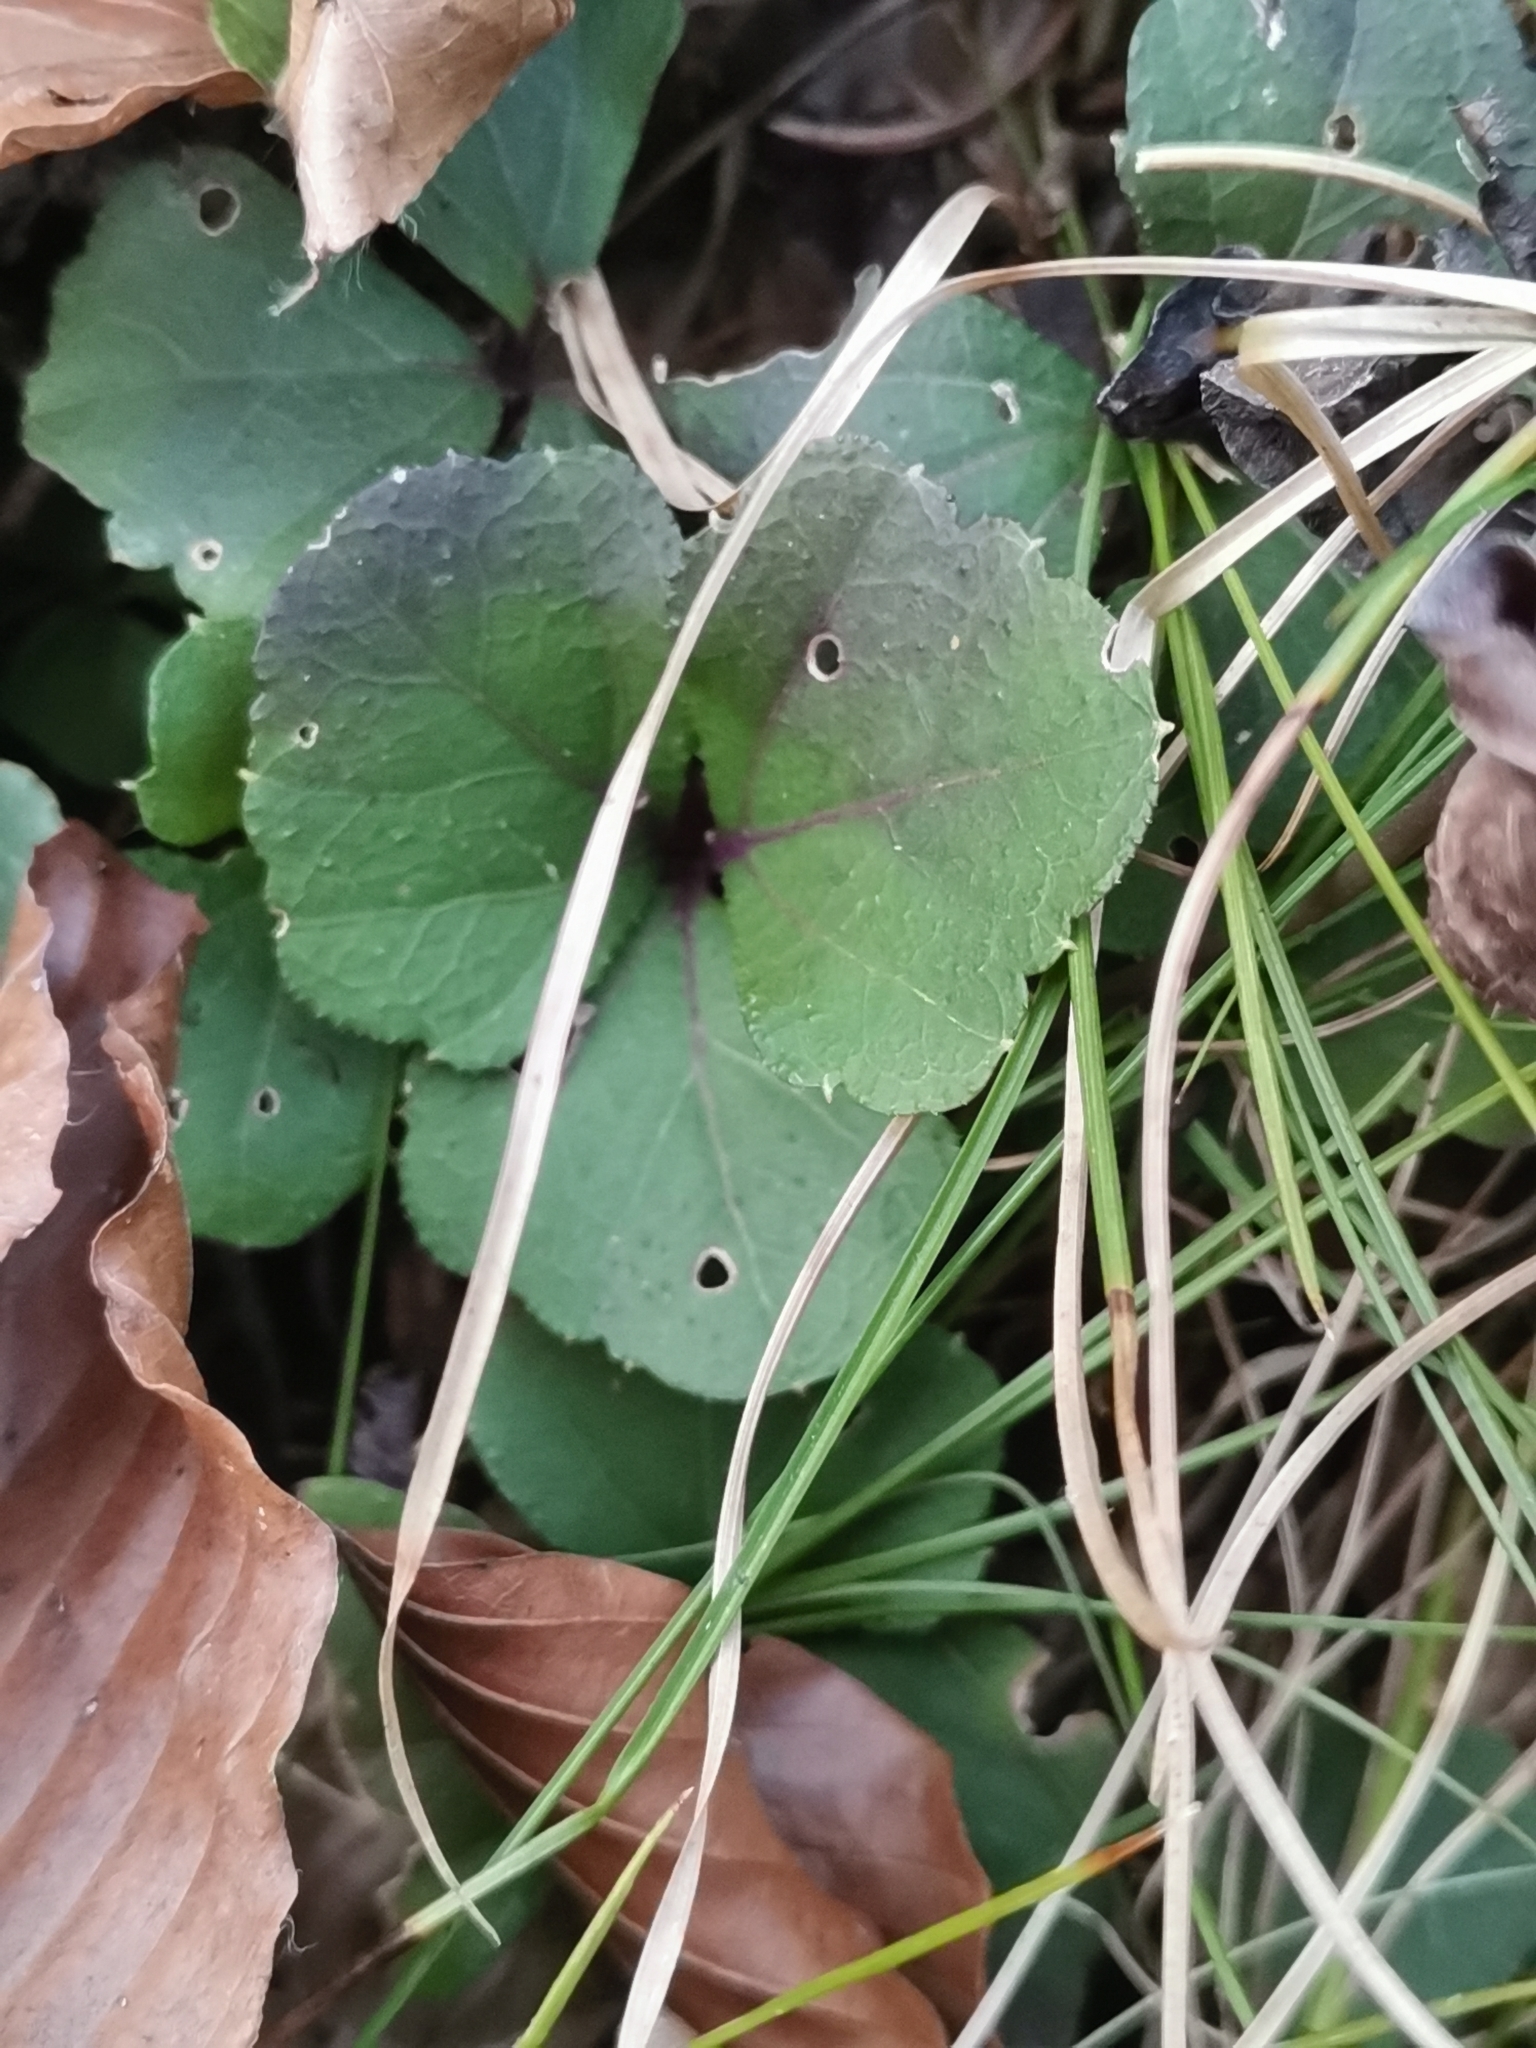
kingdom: Plantae
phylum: Tracheophyta
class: Magnoliopsida
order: Brassicales
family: Brassicaceae
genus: Cardamine
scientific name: Cardamine trifolia
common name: Trefoil cress
